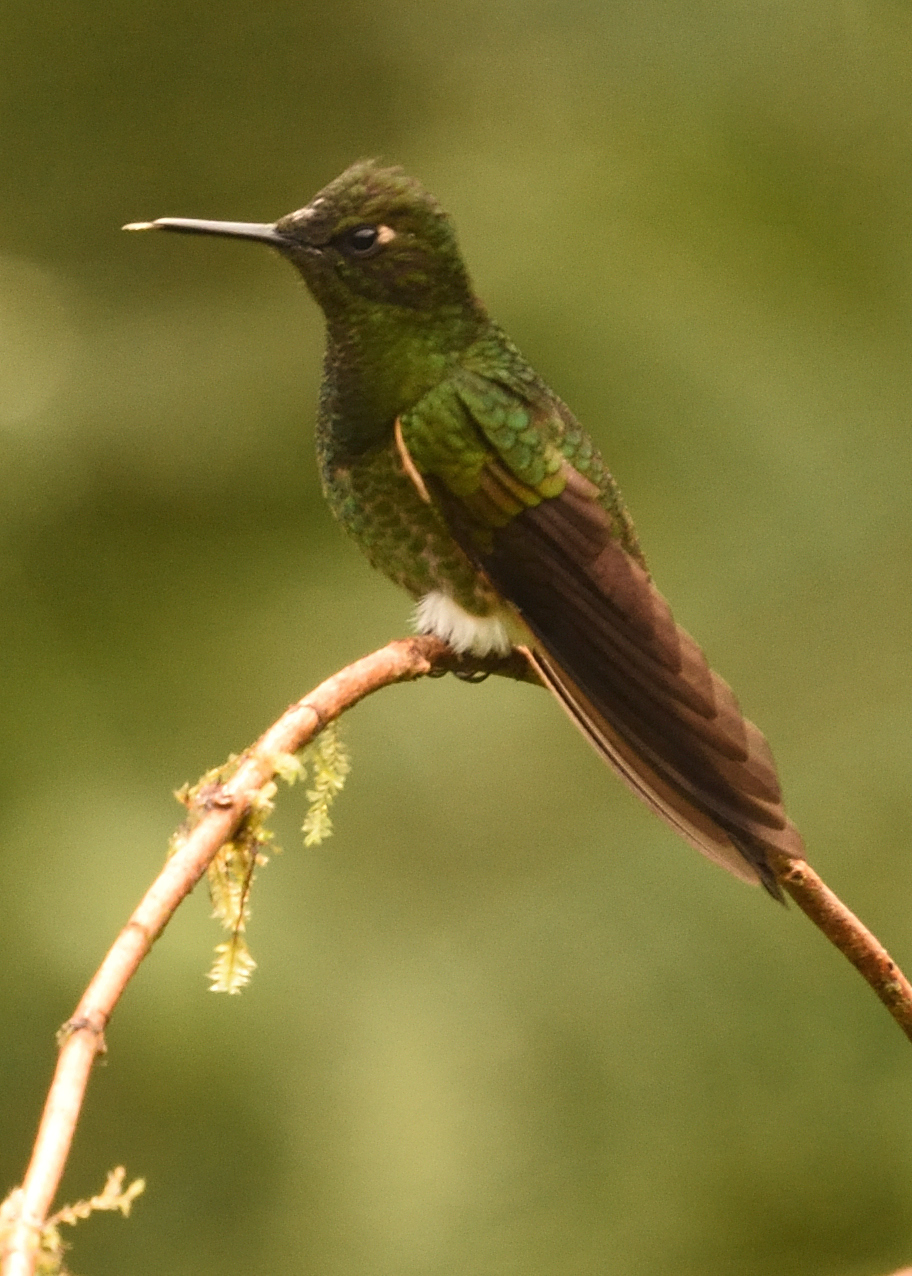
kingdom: Animalia
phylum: Chordata
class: Aves
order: Apodiformes
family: Trochilidae
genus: Boissonneaua
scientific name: Boissonneaua flavescens
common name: Buff-tailed coronet
